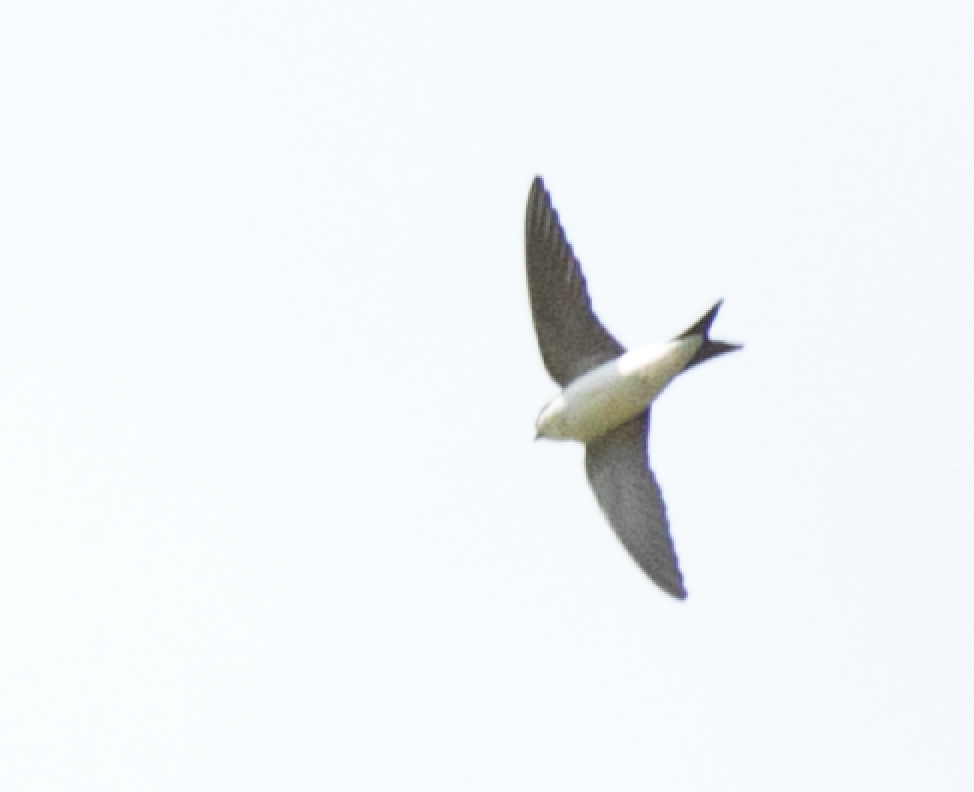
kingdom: Animalia
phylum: Chordata
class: Aves
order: Passeriformes
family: Hirundinidae
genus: Delichon
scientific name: Delichon urbicum
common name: Common house martin
